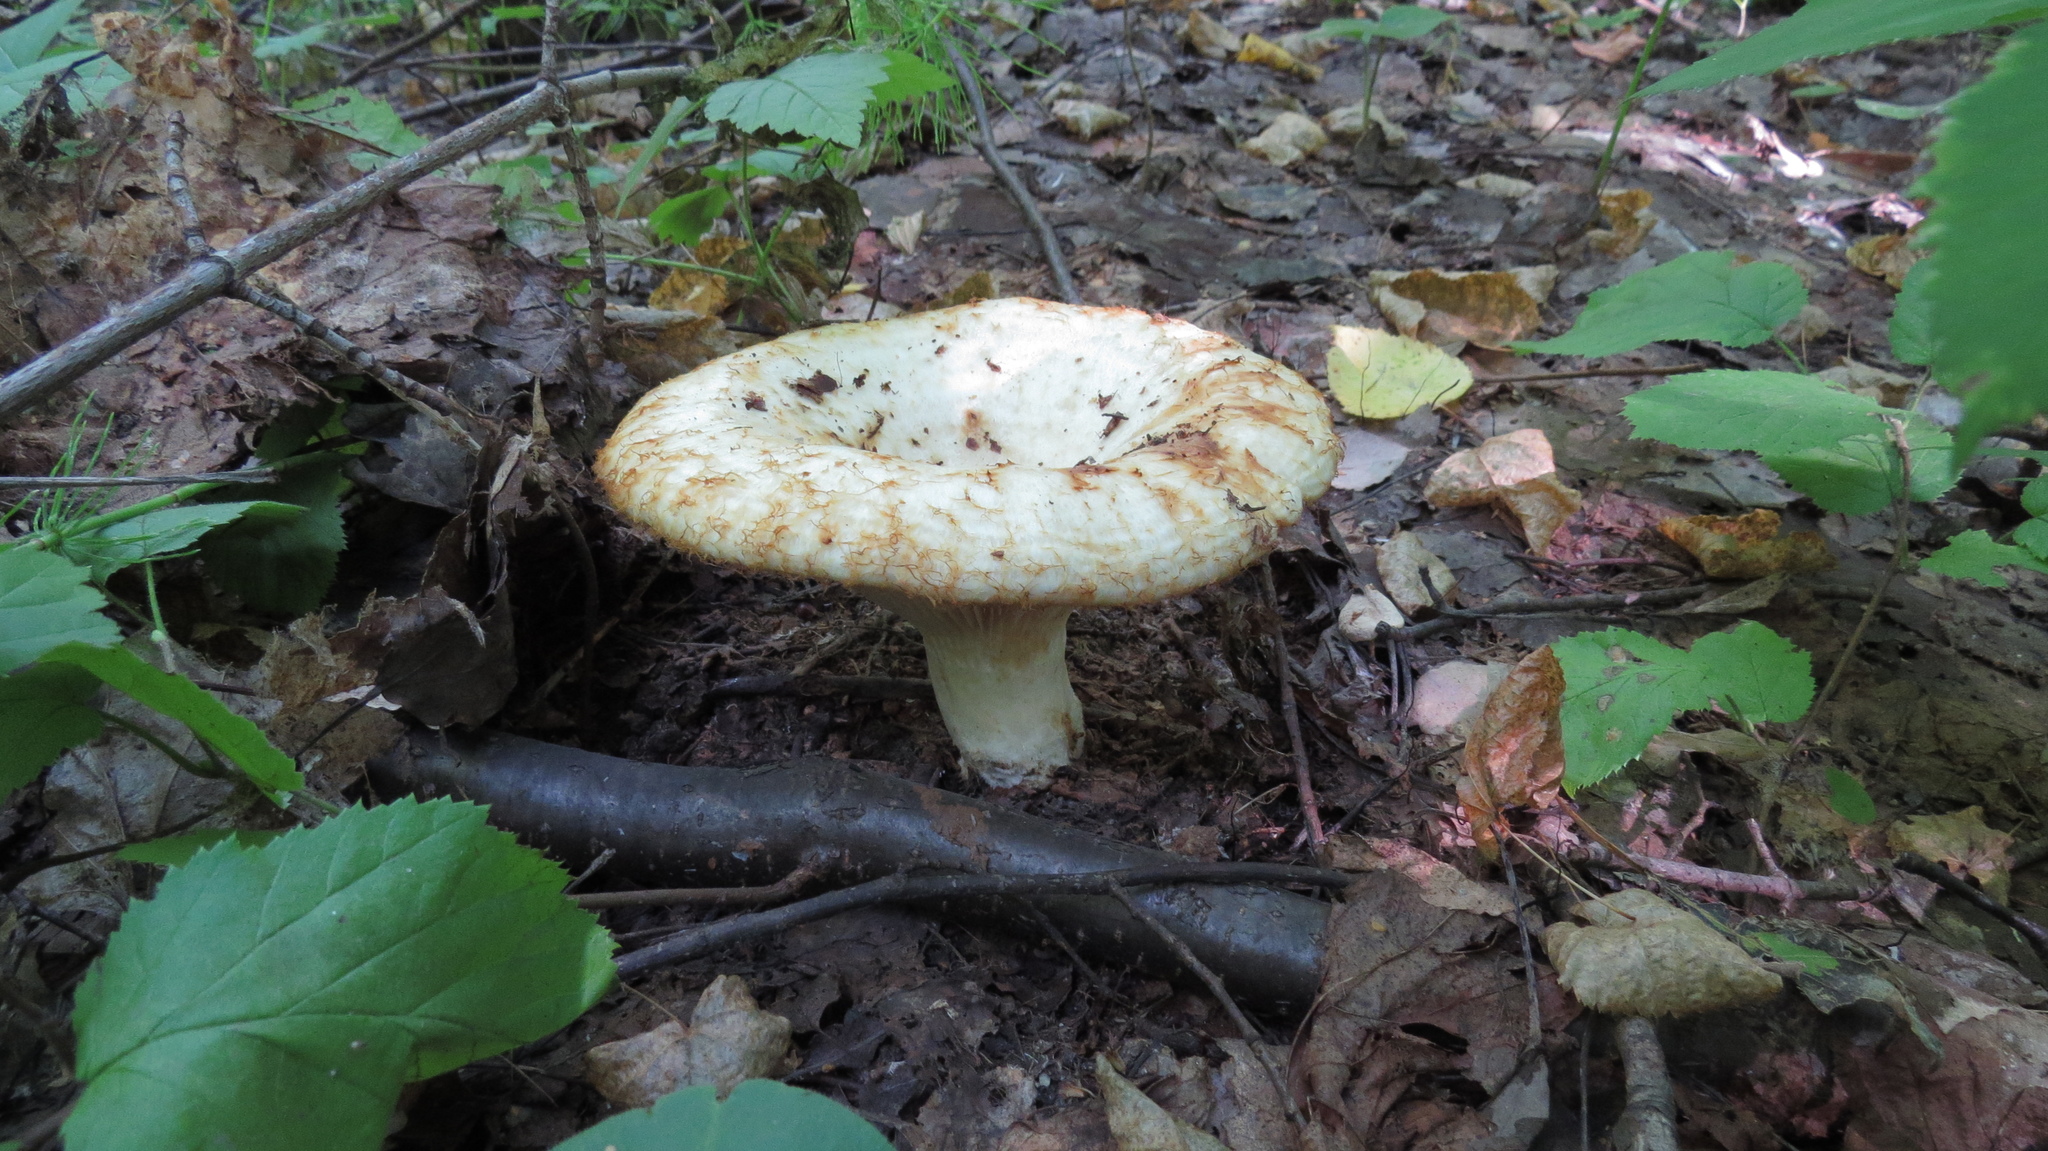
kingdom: Fungi
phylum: Basidiomycota
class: Agaricomycetes
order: Russulales
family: Russulaceae
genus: Lactarius
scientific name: Lactarius resimus
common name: Rollrim milkcap
